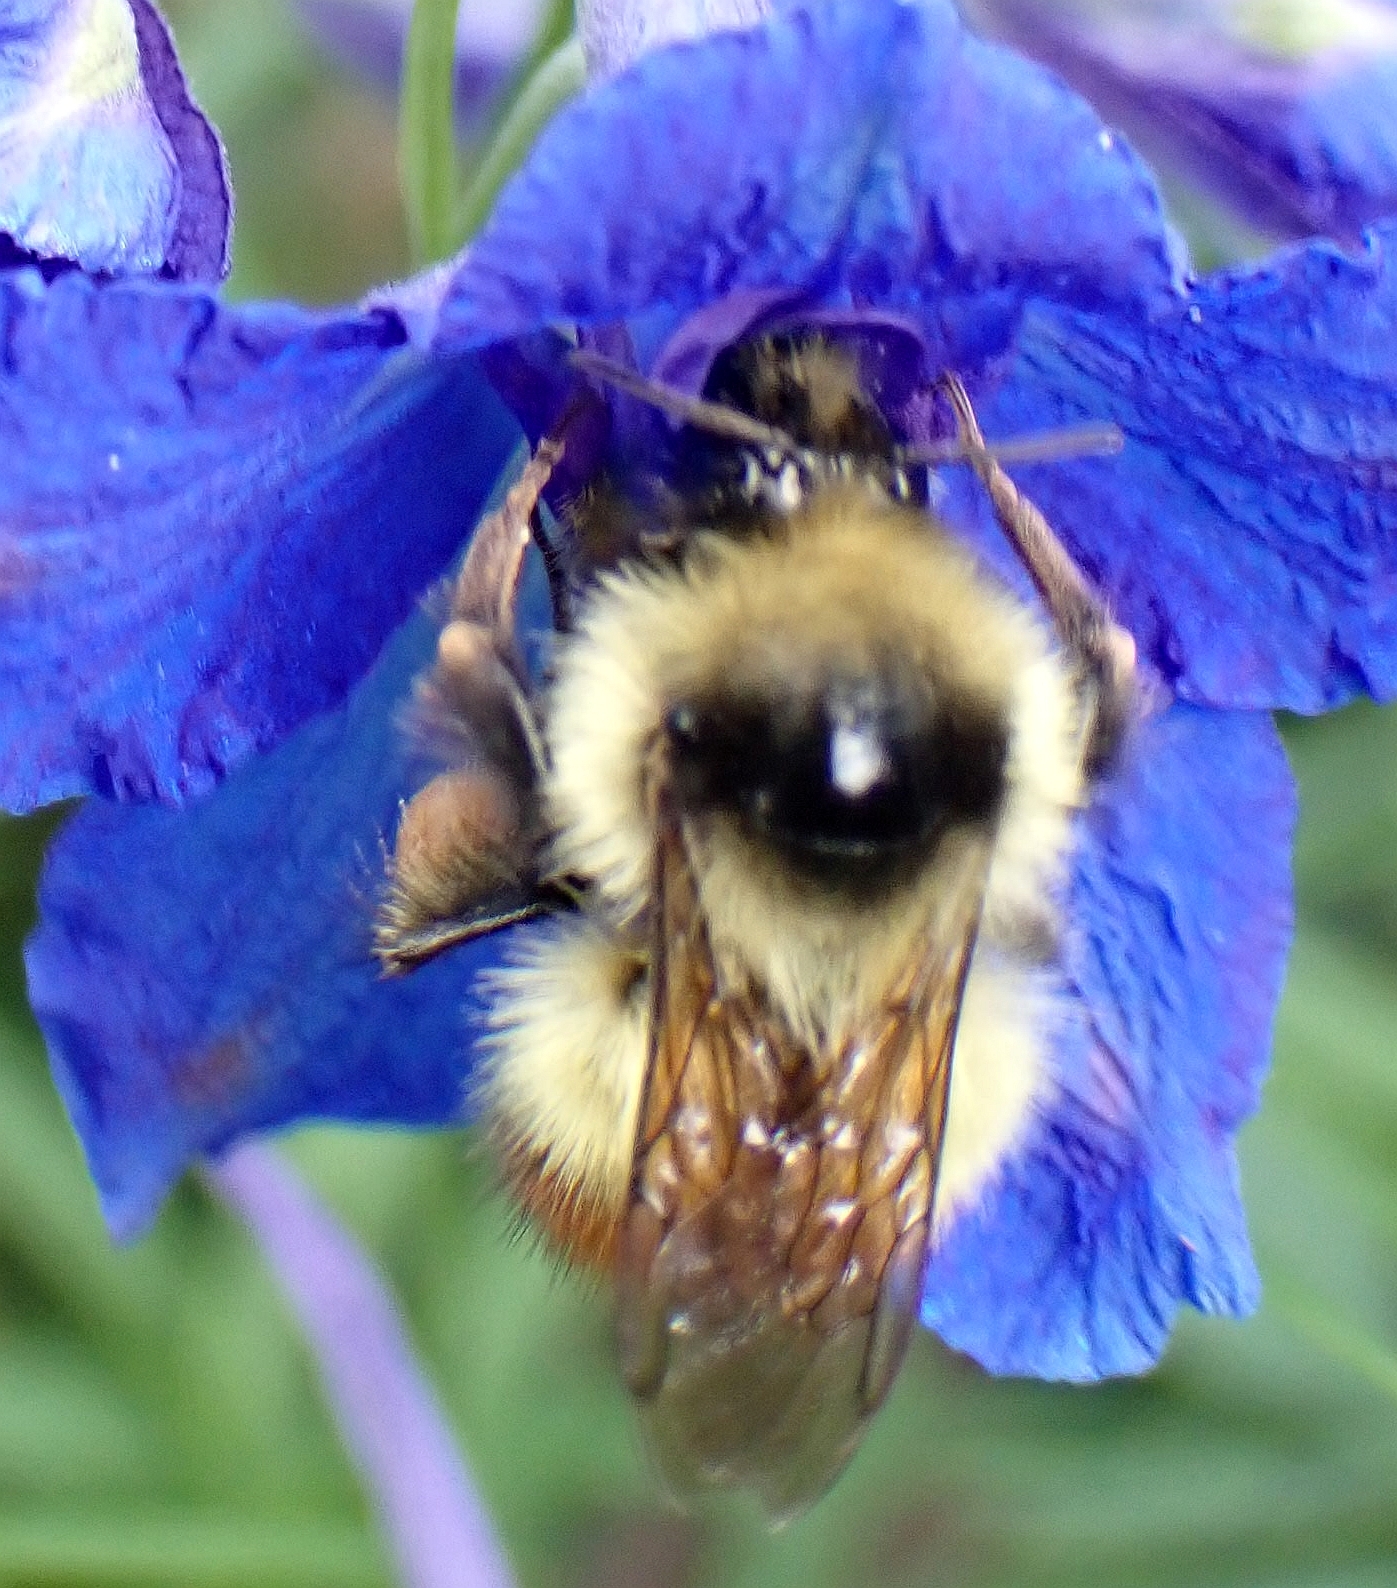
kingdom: Animalia
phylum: Arthropoda
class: Insecta
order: Hymenoptera
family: Apidae
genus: Bombus
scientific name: Bombus centralis
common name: Central bumble bee
